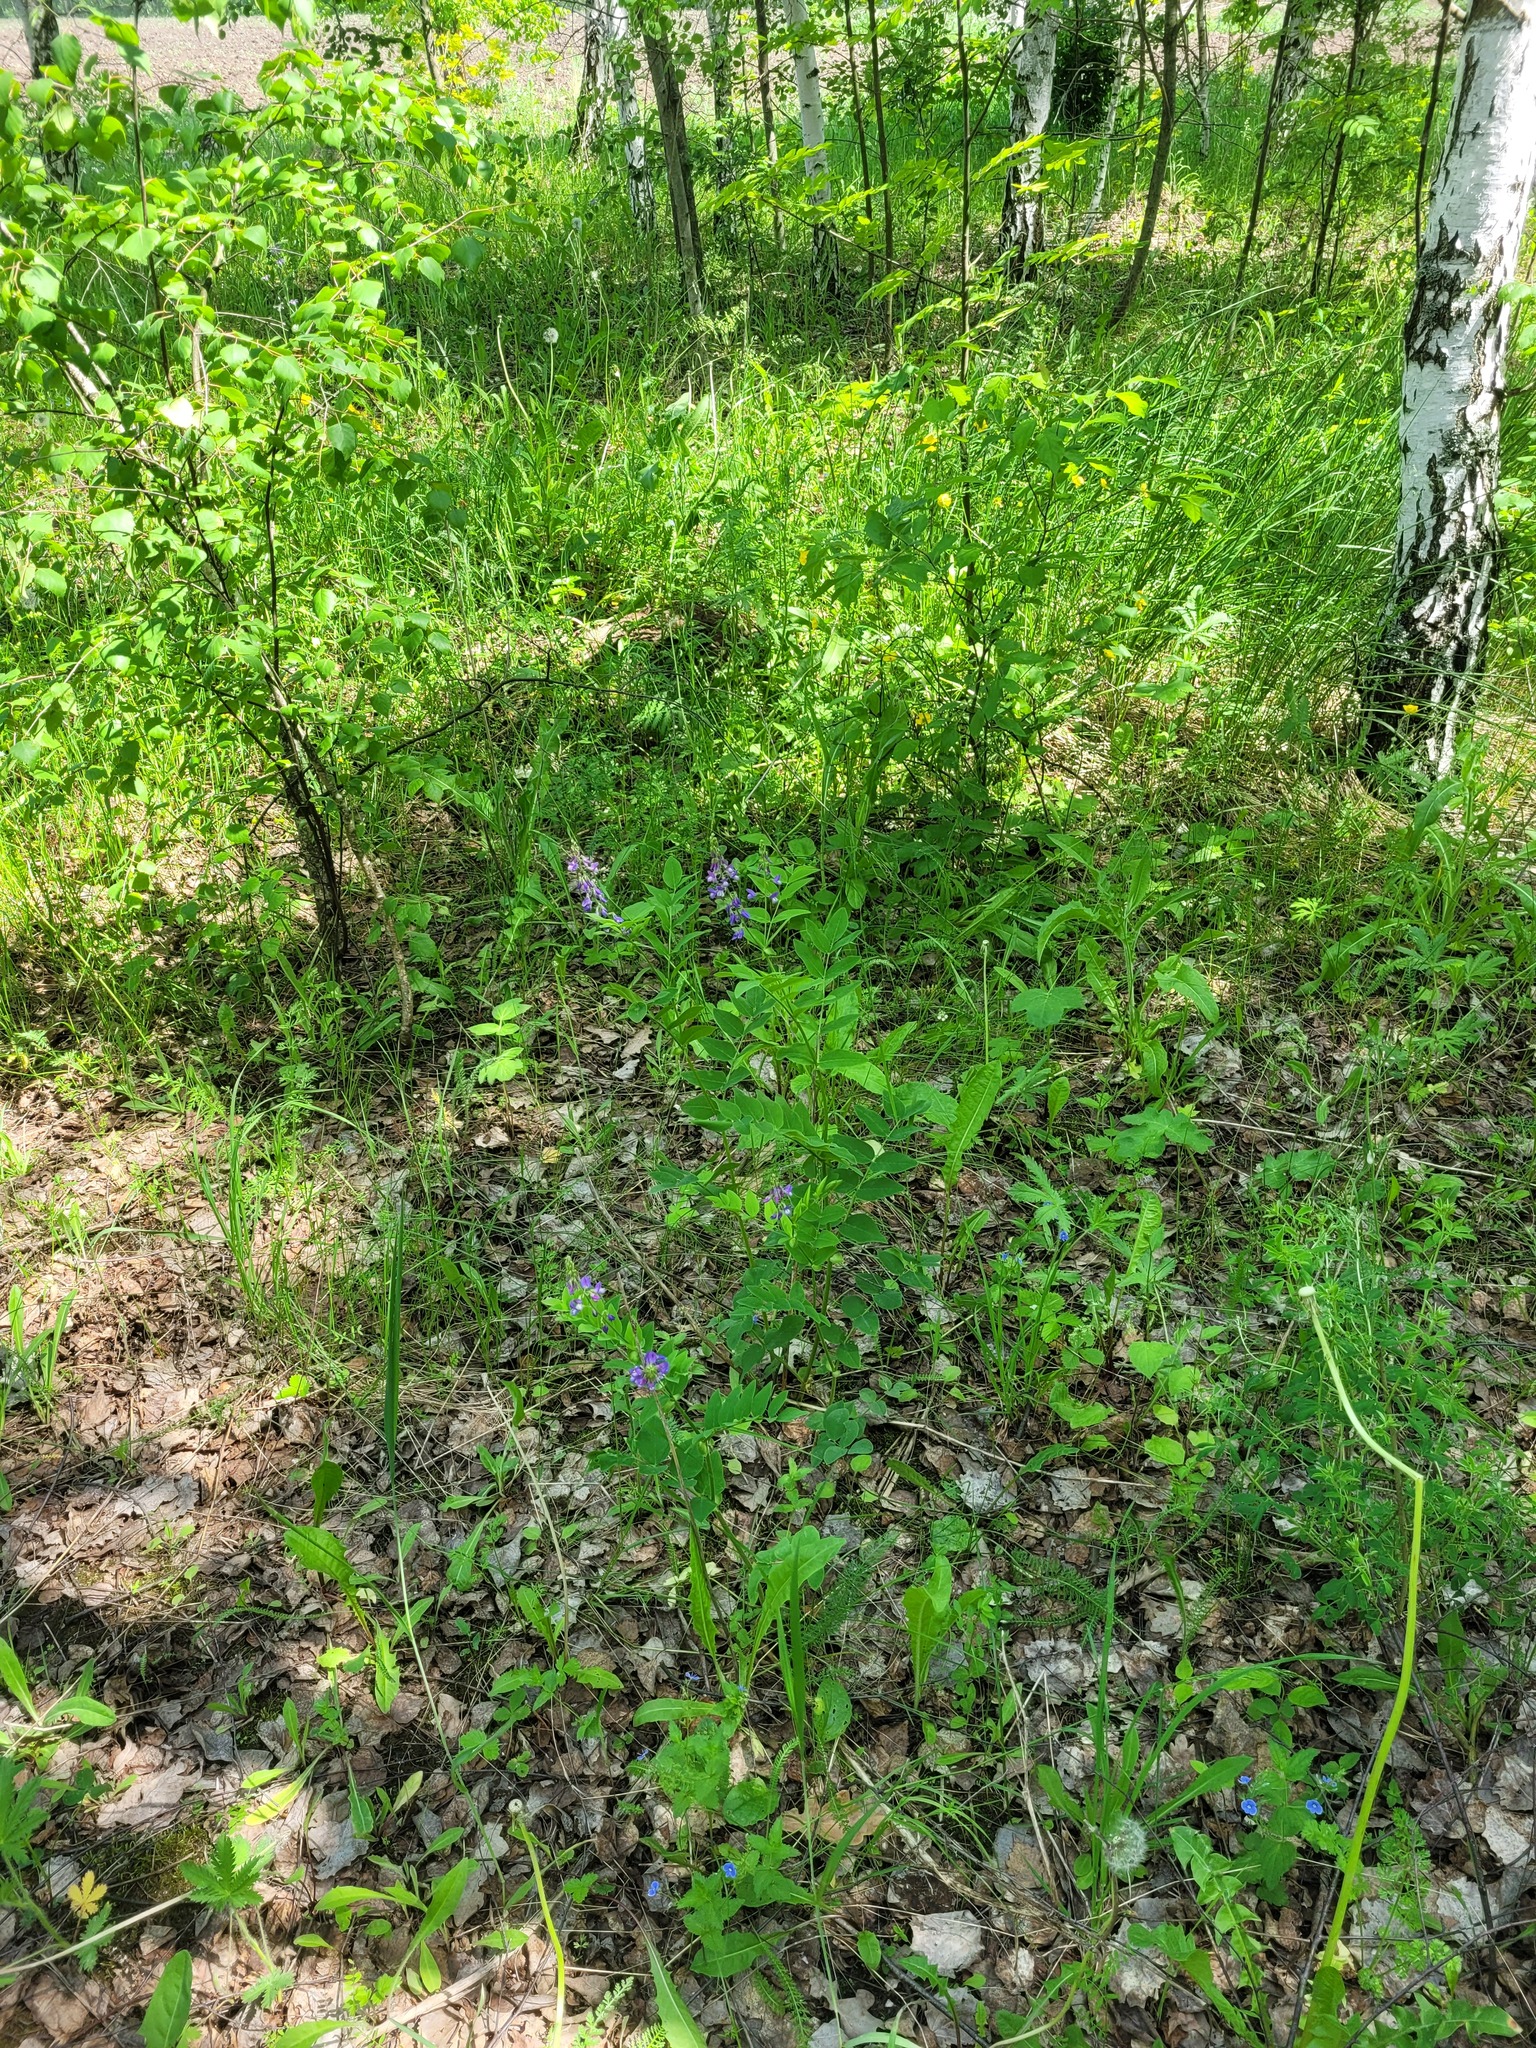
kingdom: Plantae
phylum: Tracheophyta
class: Magnoliopsida
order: Fabales
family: Fabaceae
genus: Galega
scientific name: Galega orientalis
